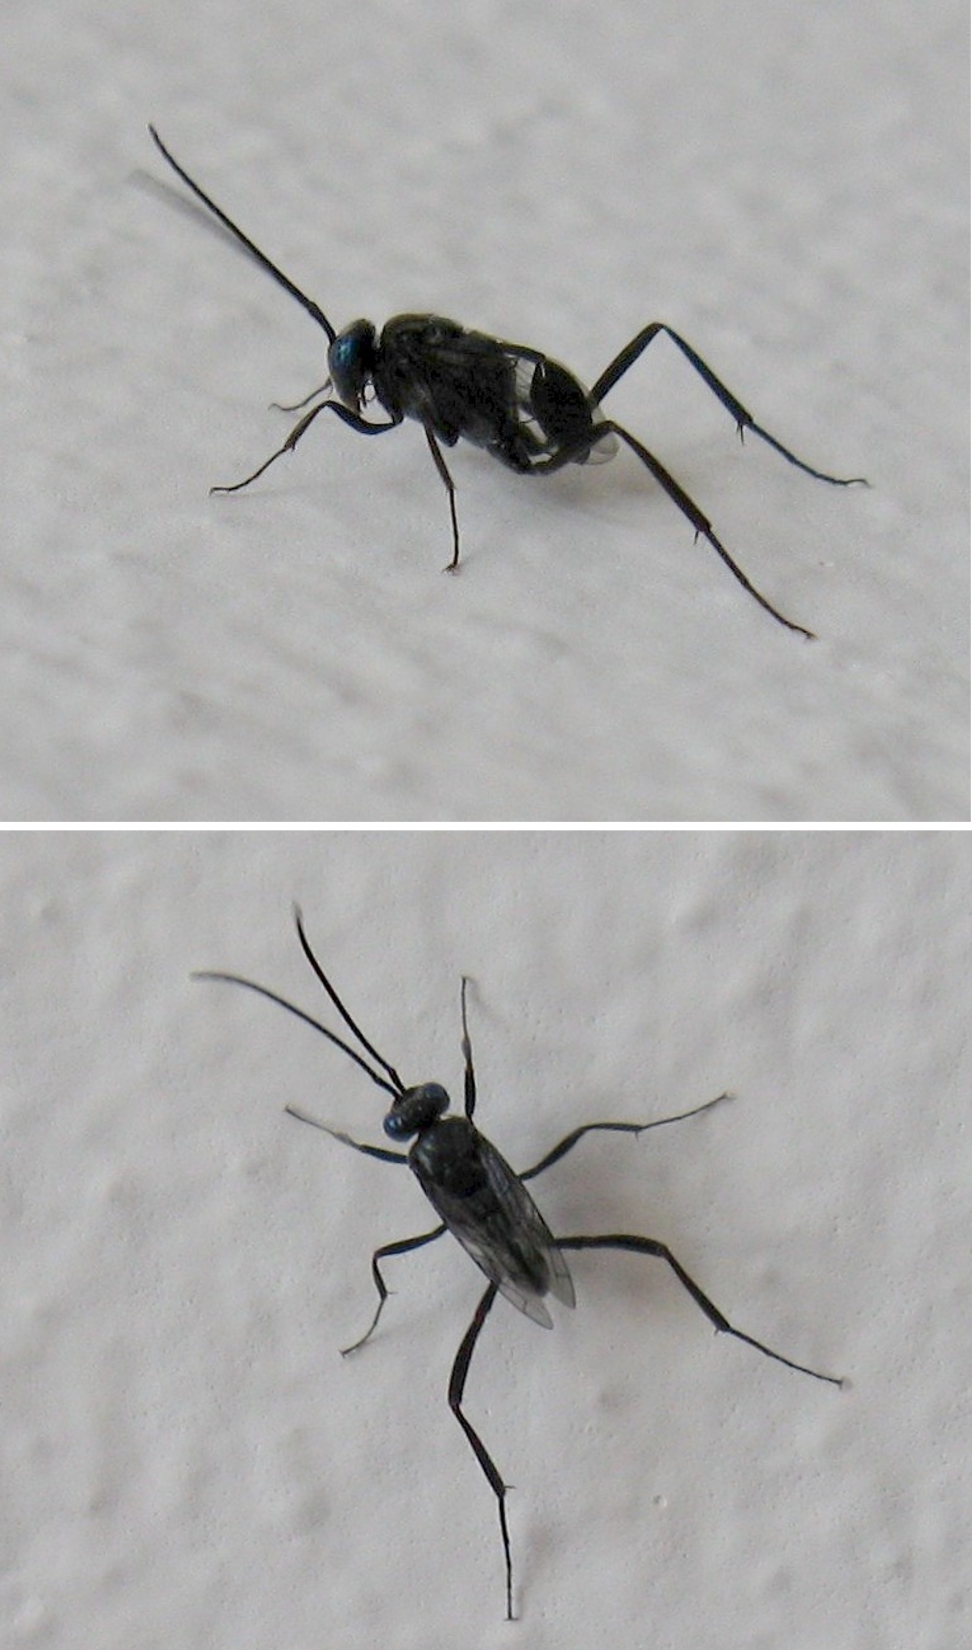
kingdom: Animalia
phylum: Arthropoda
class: Insecta
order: Hymenoptera
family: Evaniidae
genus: Evania
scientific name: Evania appendigaster
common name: Ensign wasp
